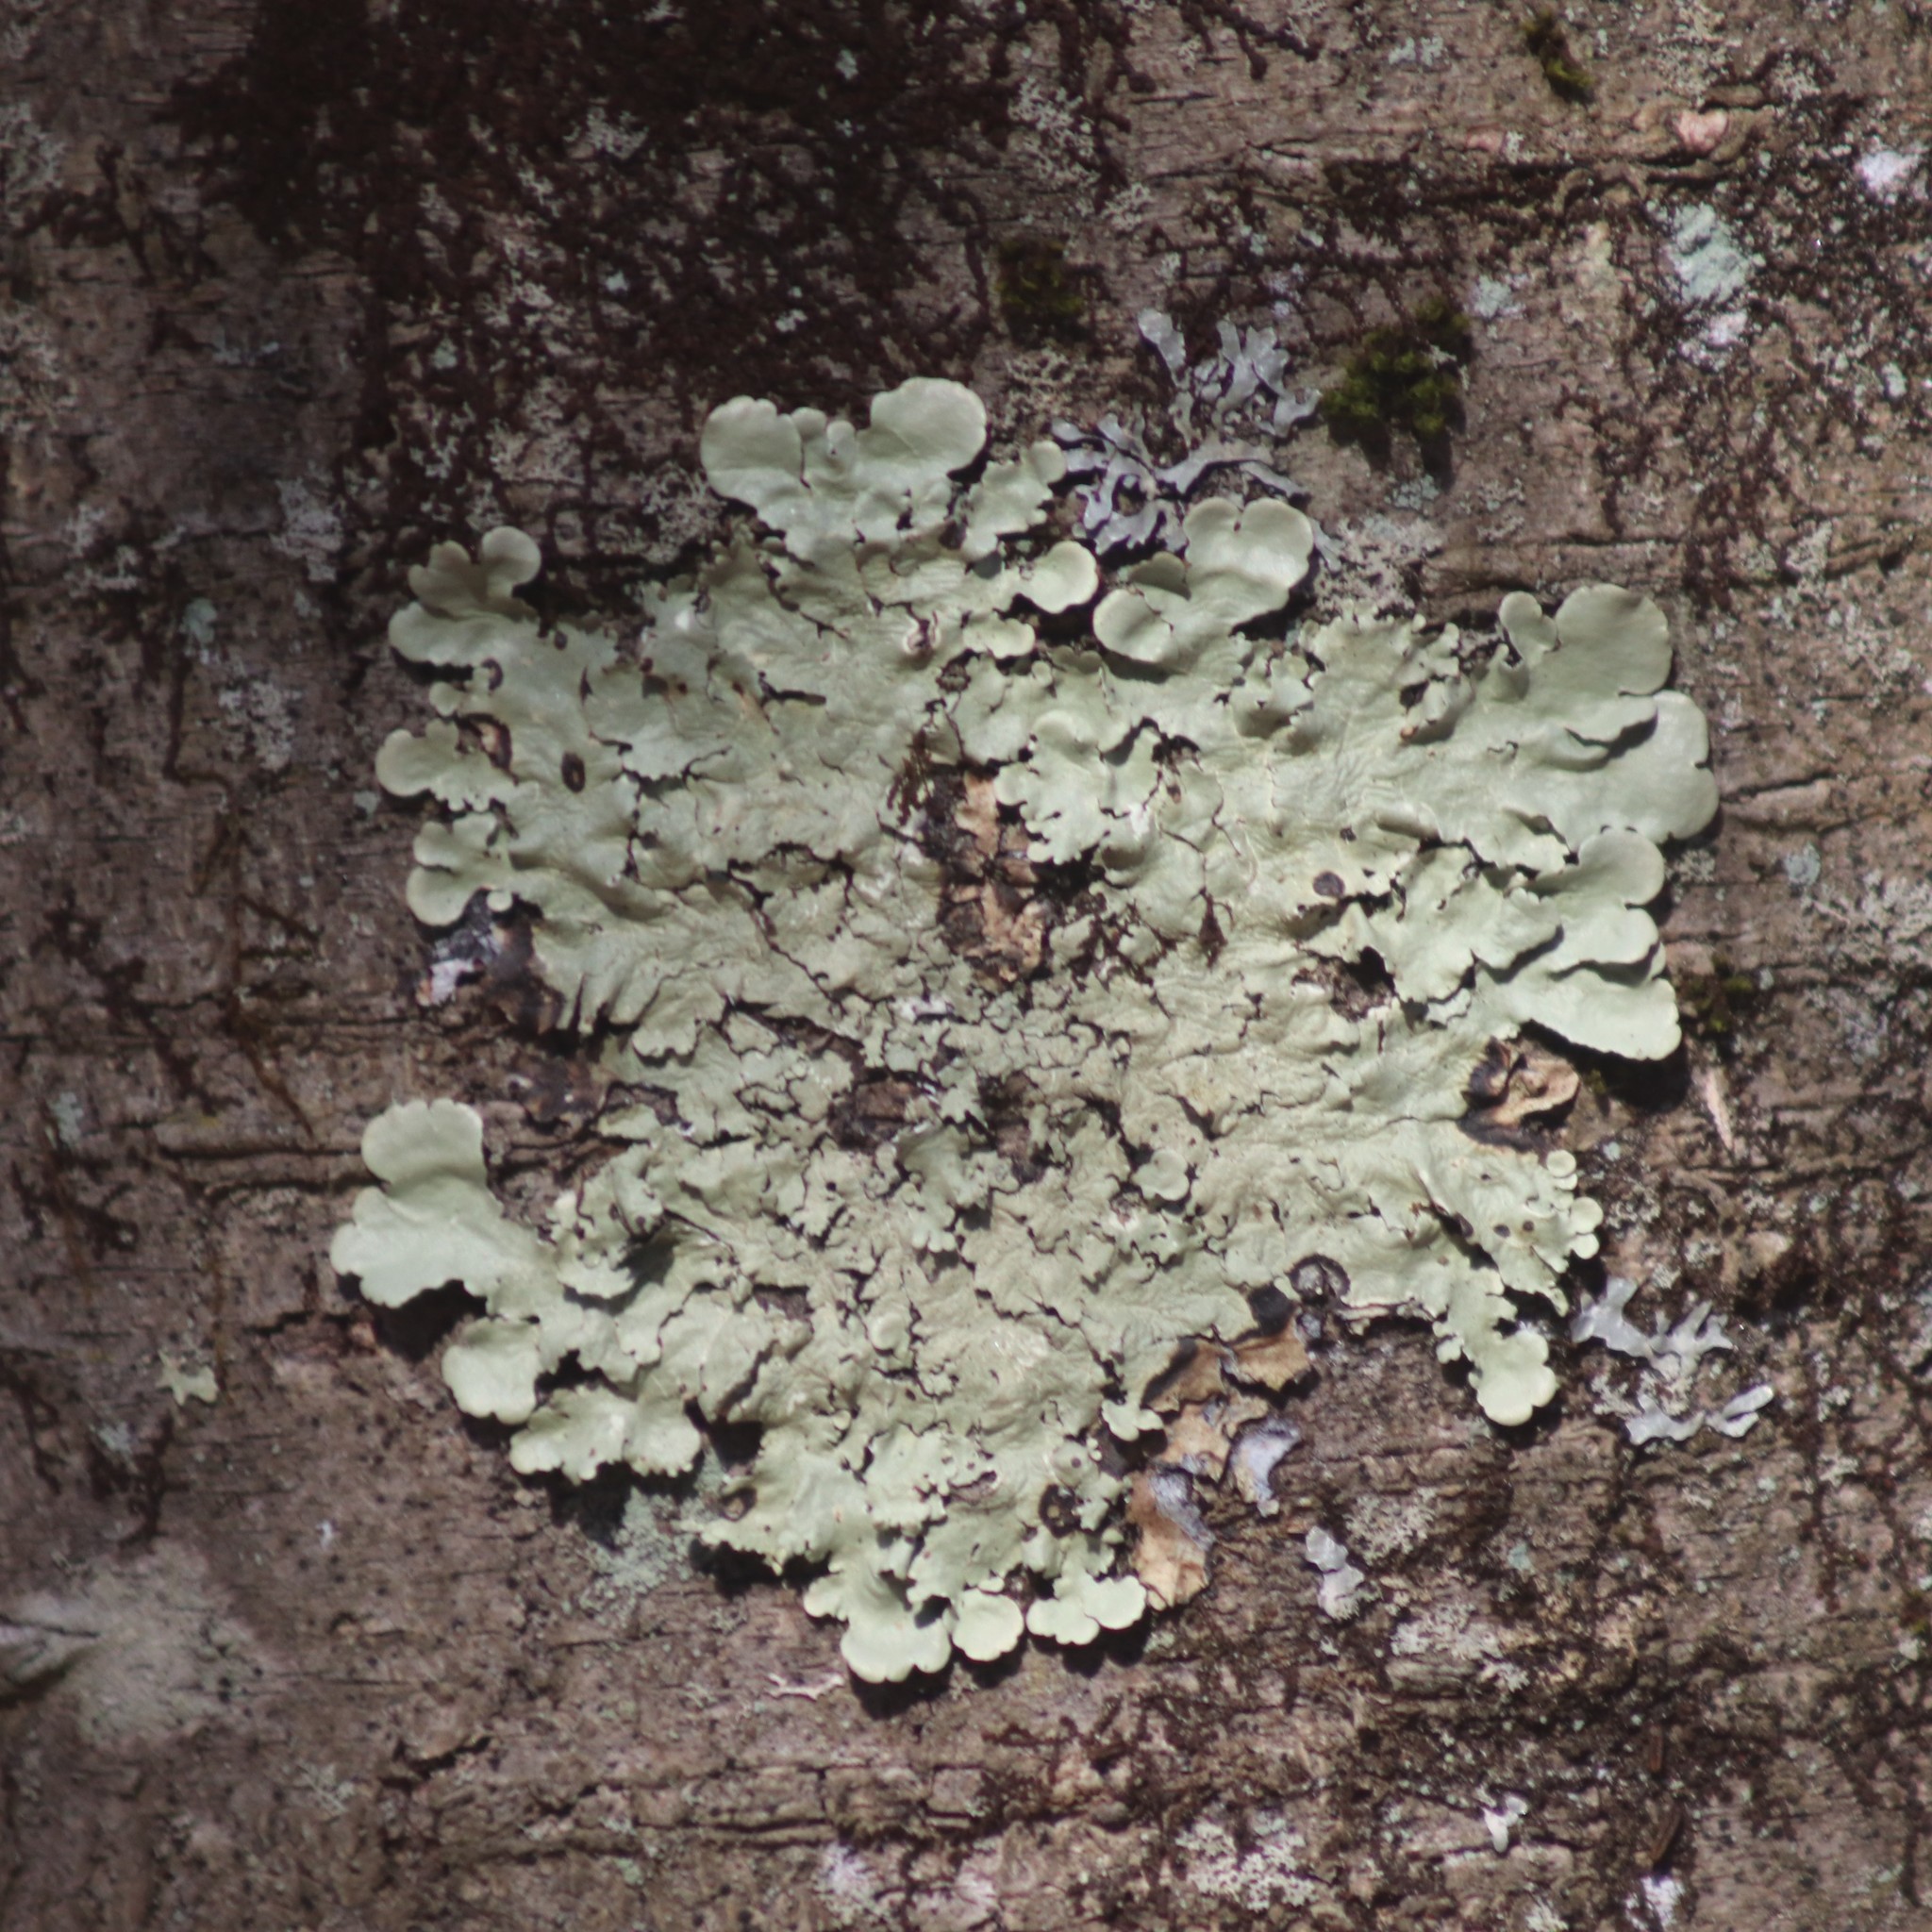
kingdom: Fungi
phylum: Ascomycota
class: Lecanoromycetes
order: Lecanorales
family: Parmeliaceae
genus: Flavoparmelia
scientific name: Flavoparmelia caperata
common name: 40-mile per hour lichen
